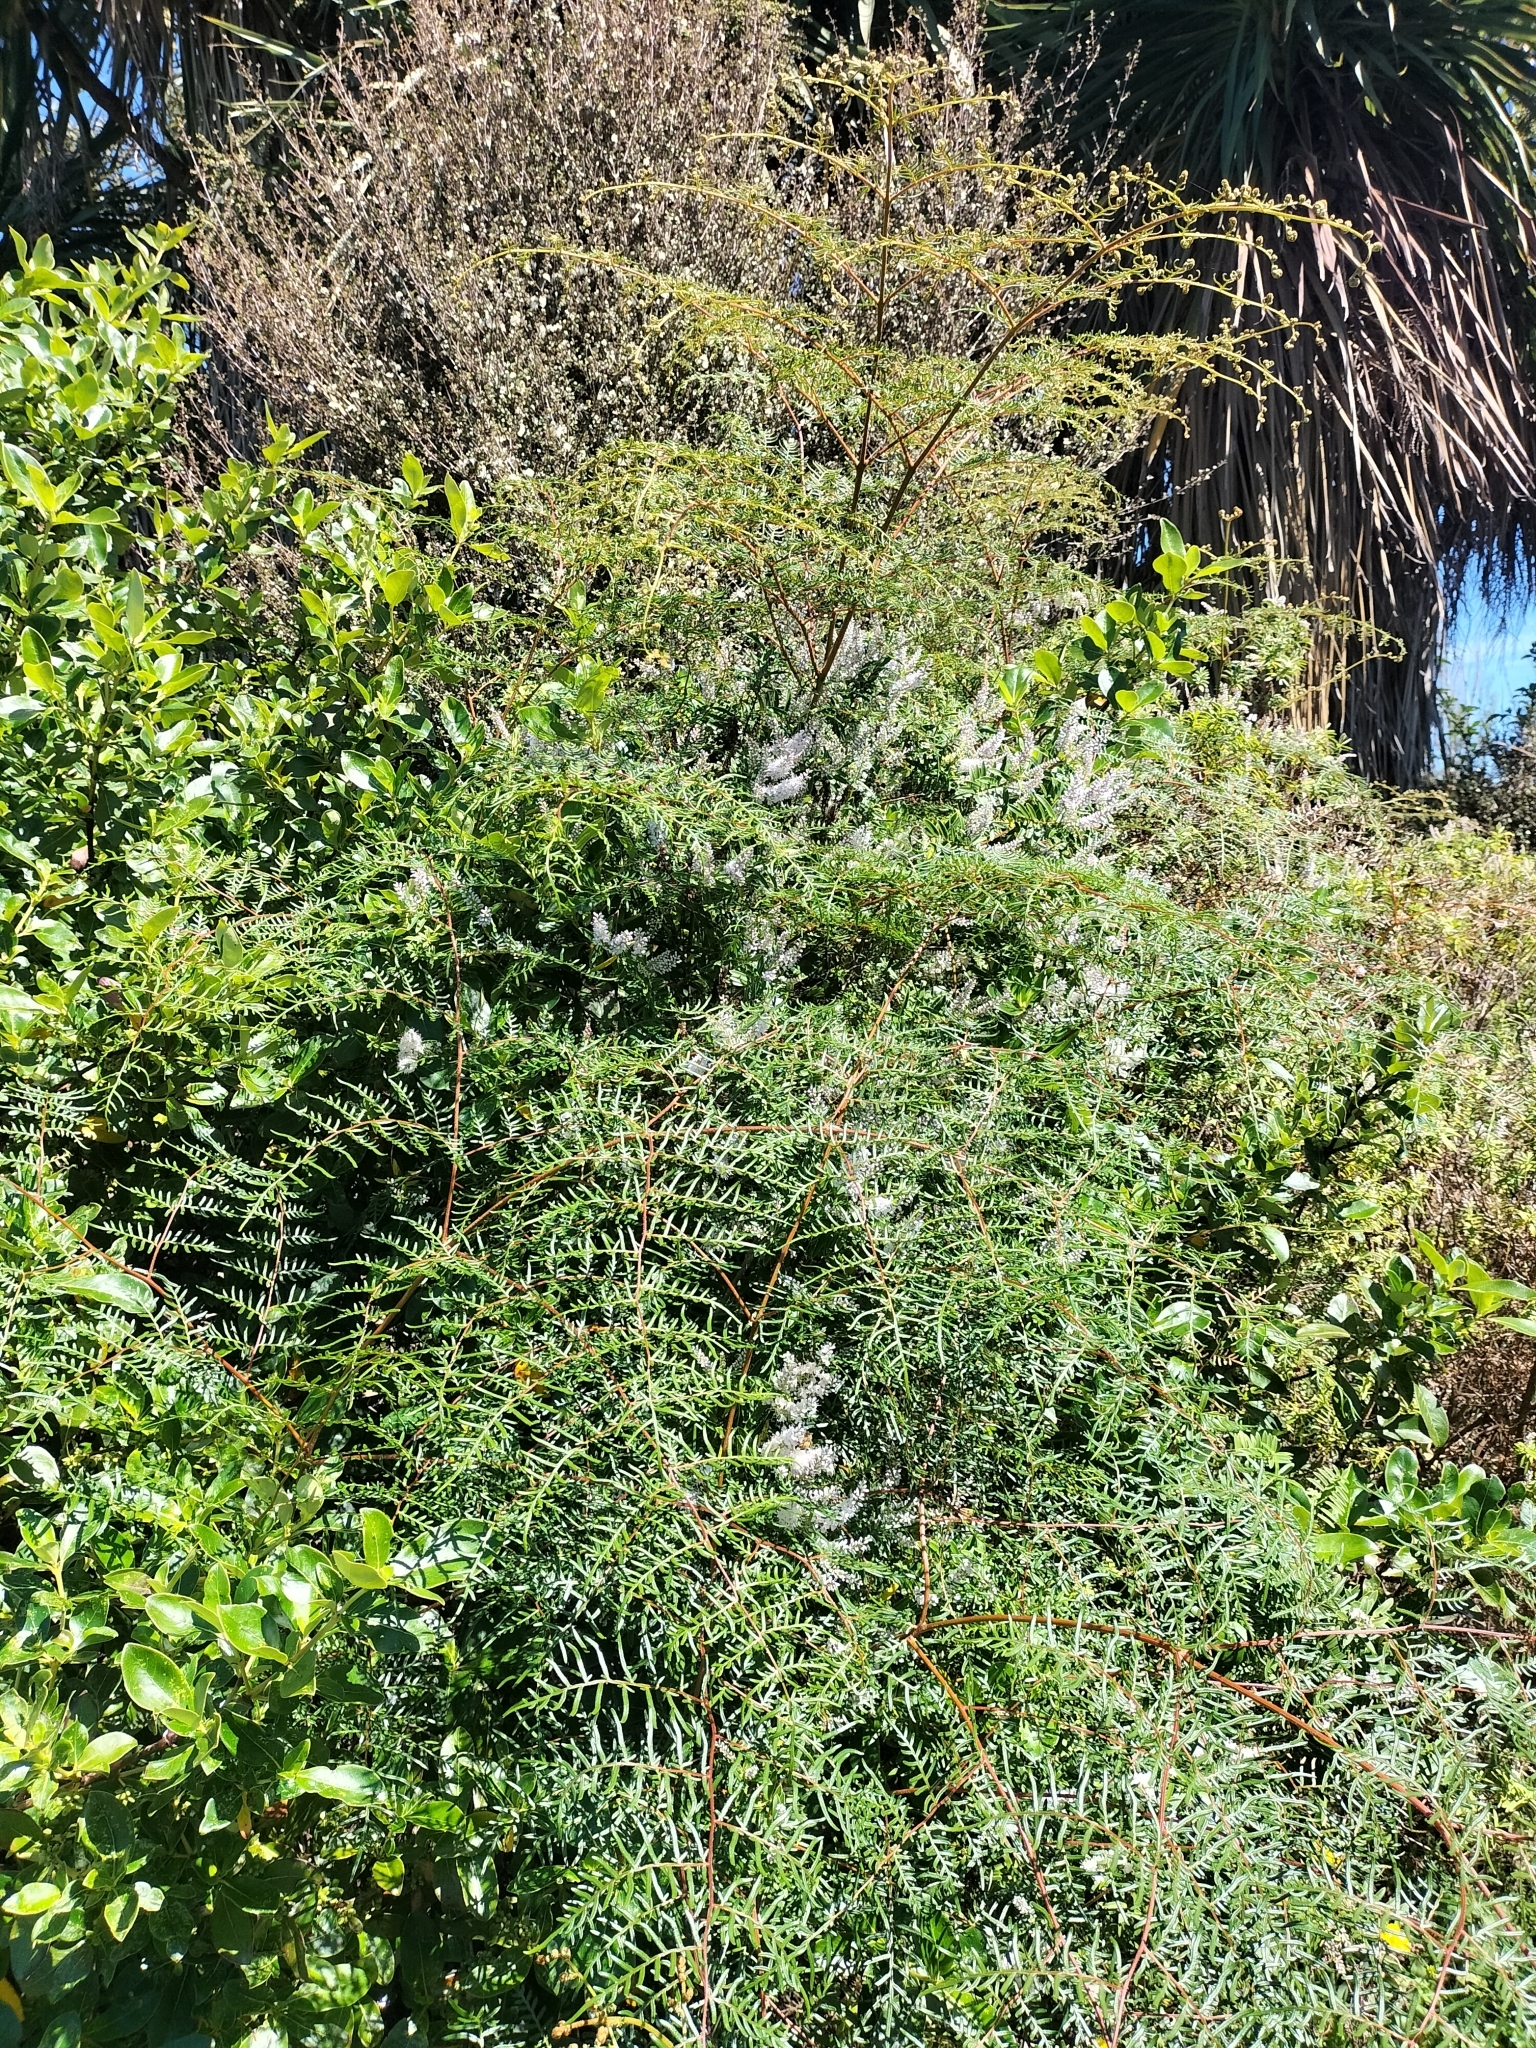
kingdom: Plantae
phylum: Tracheophyta
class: Polypodiopsida
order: Polypodiales
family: Dennstaedtiaceae
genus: Pteridium
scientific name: Pteridium esculentum
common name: Bracken fern
